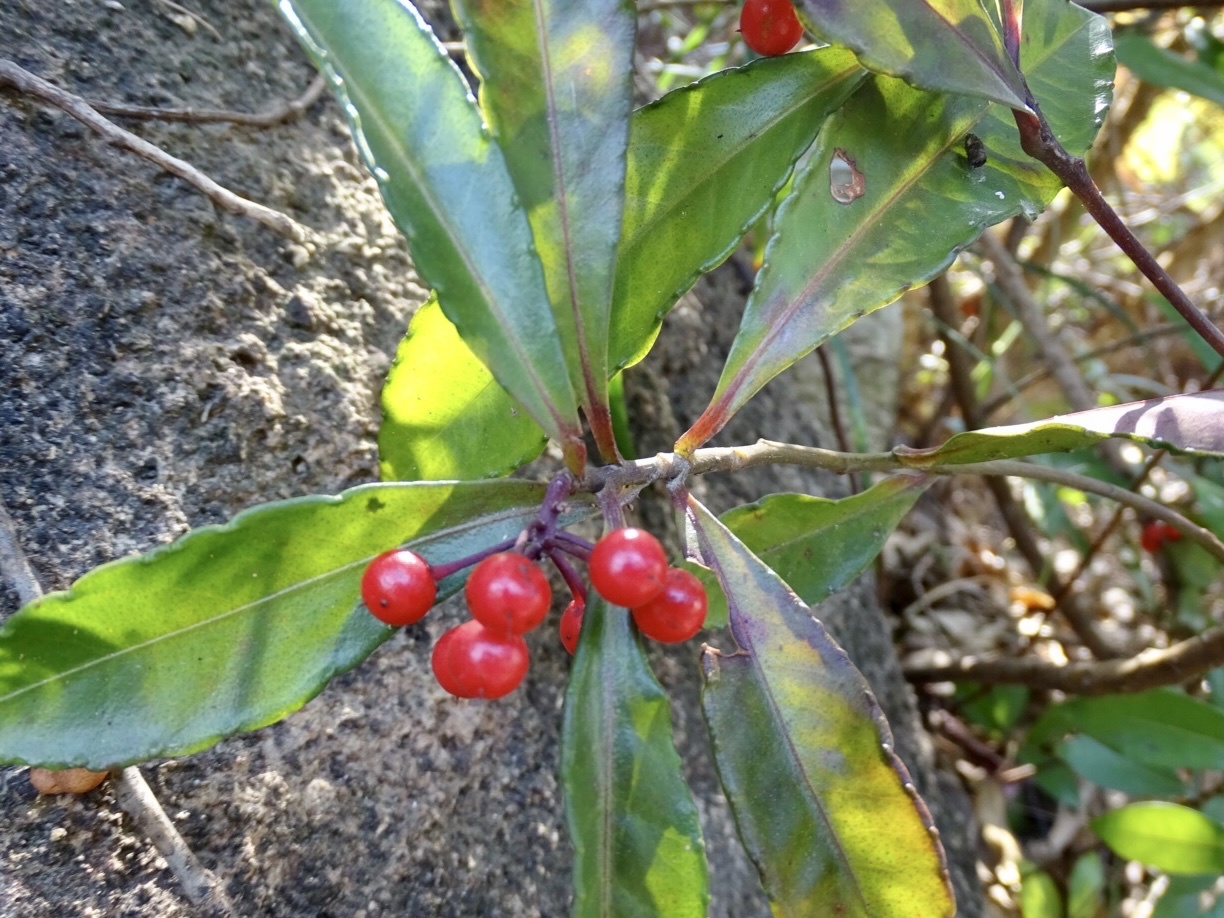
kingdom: Plantae
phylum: Tracheophyta
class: Magnoliopsida
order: Ericales
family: Primulaceae
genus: Ardisia
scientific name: Ardisia crenata
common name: Hen's eyes
